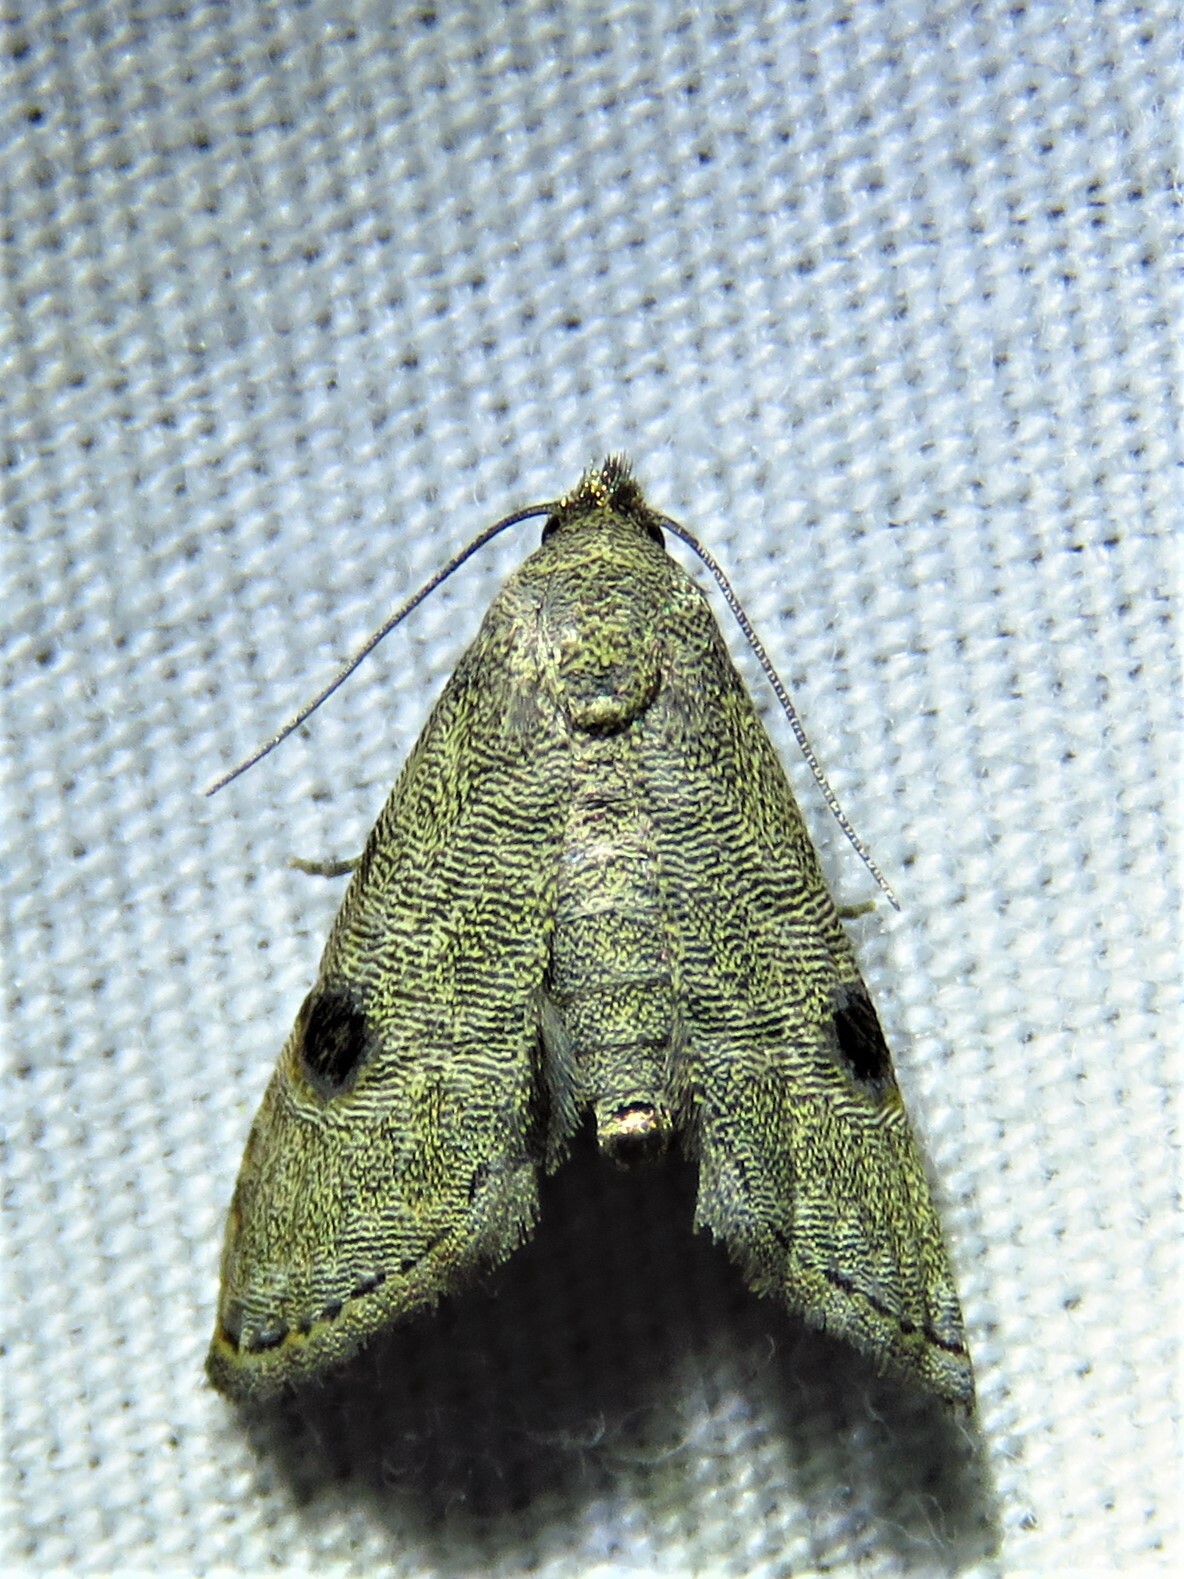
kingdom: Animalia
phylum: Arthropoda
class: Insecta
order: Lepidoptera
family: Noctuidae
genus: Abablemma
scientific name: Abablemma brimleyana
